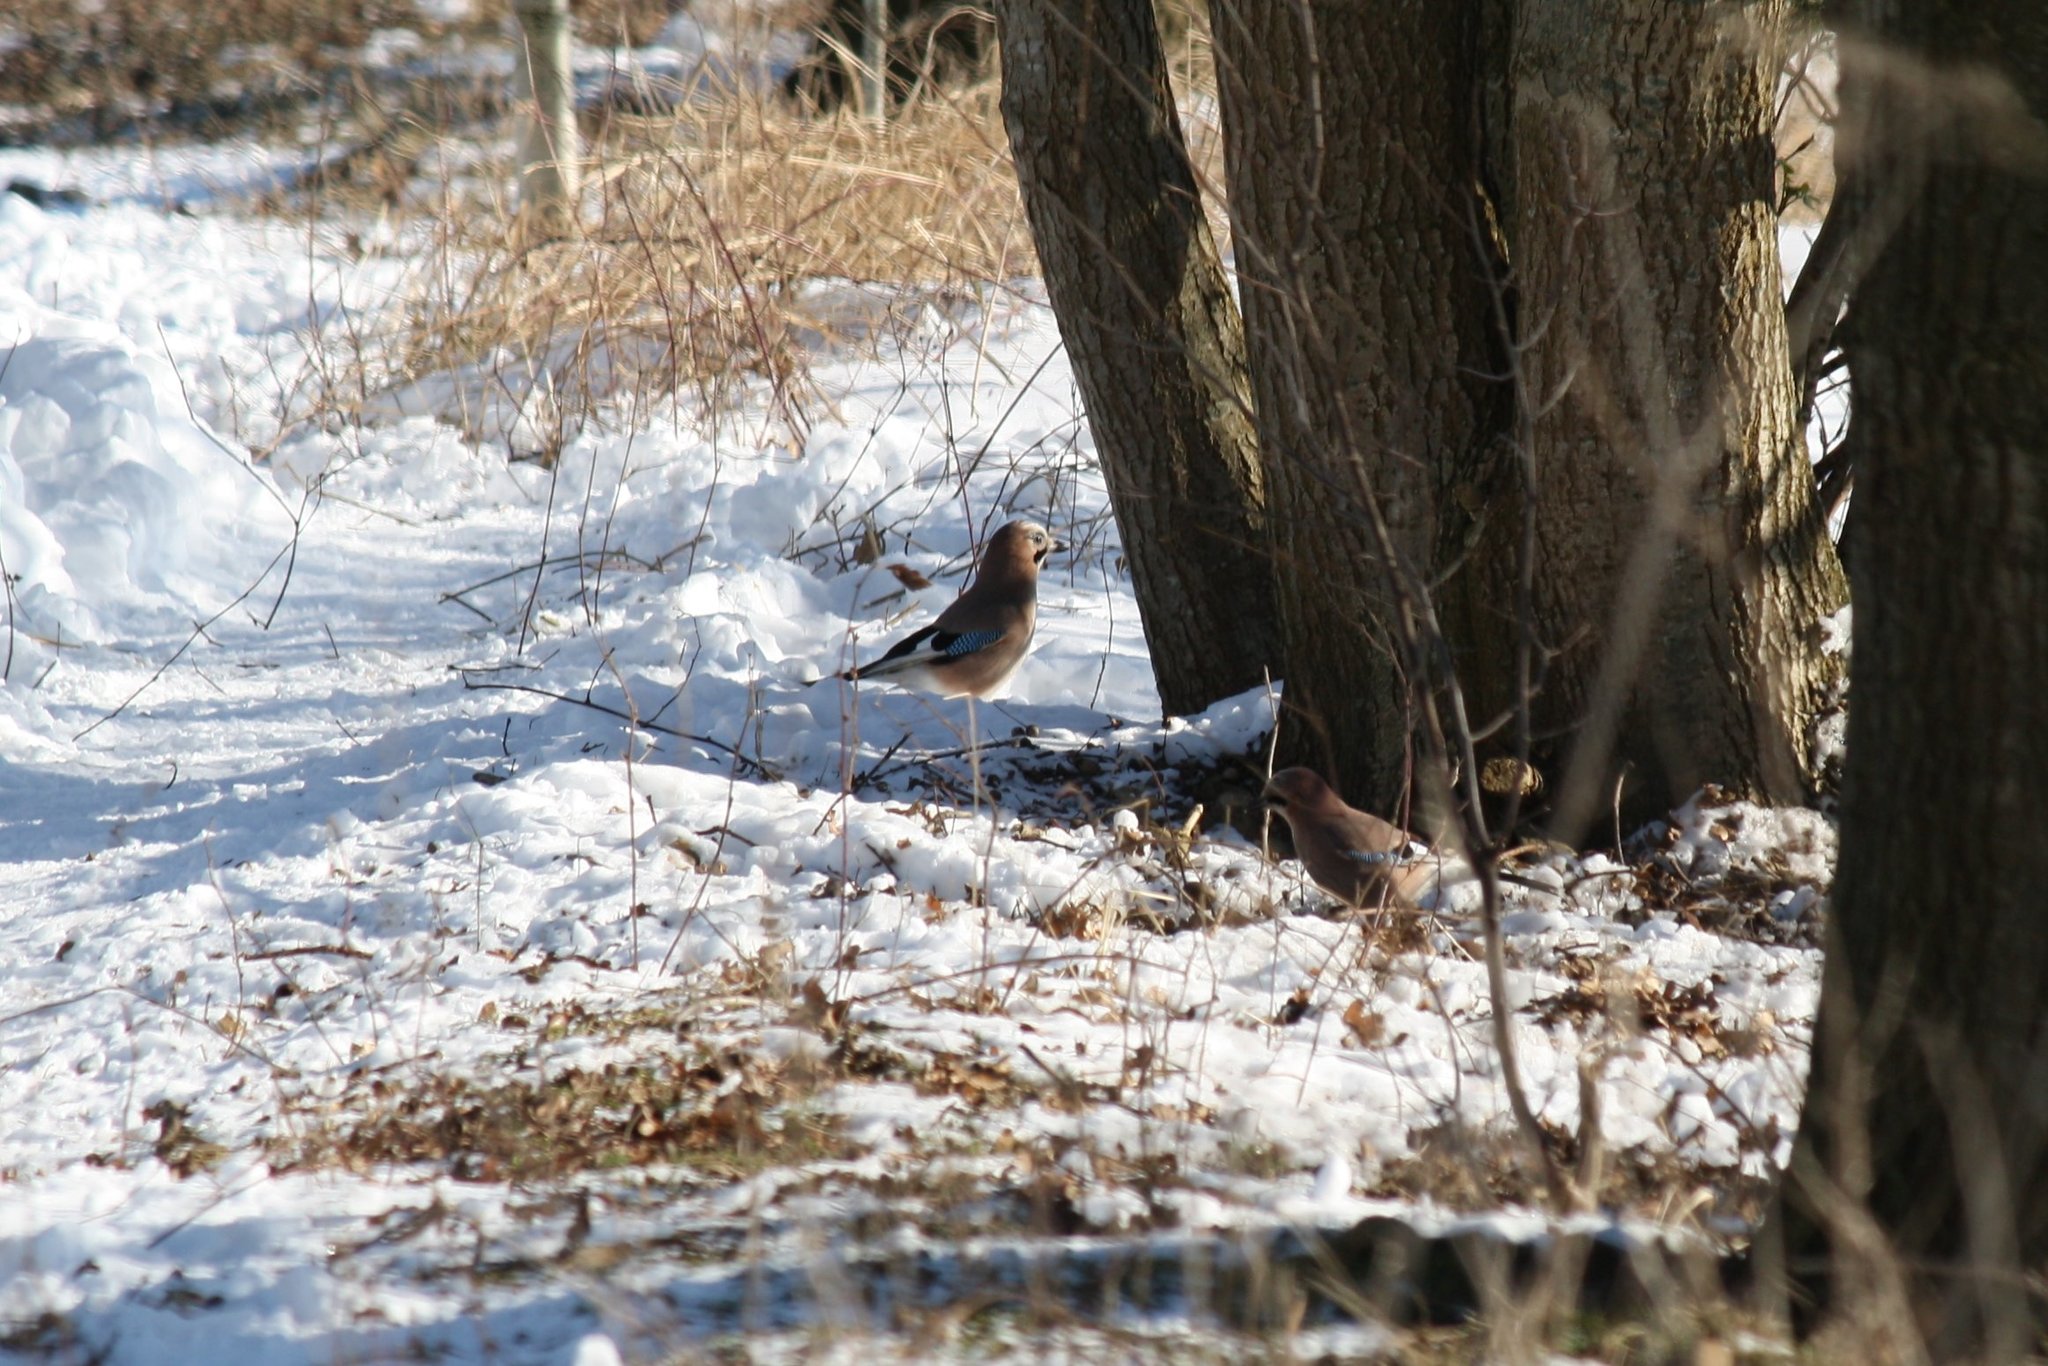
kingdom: Animalia
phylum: Chordata
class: Aves
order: Passeriformes
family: Corvidae
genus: Garrulus
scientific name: Garrulus glandarius
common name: Eurasian jay
